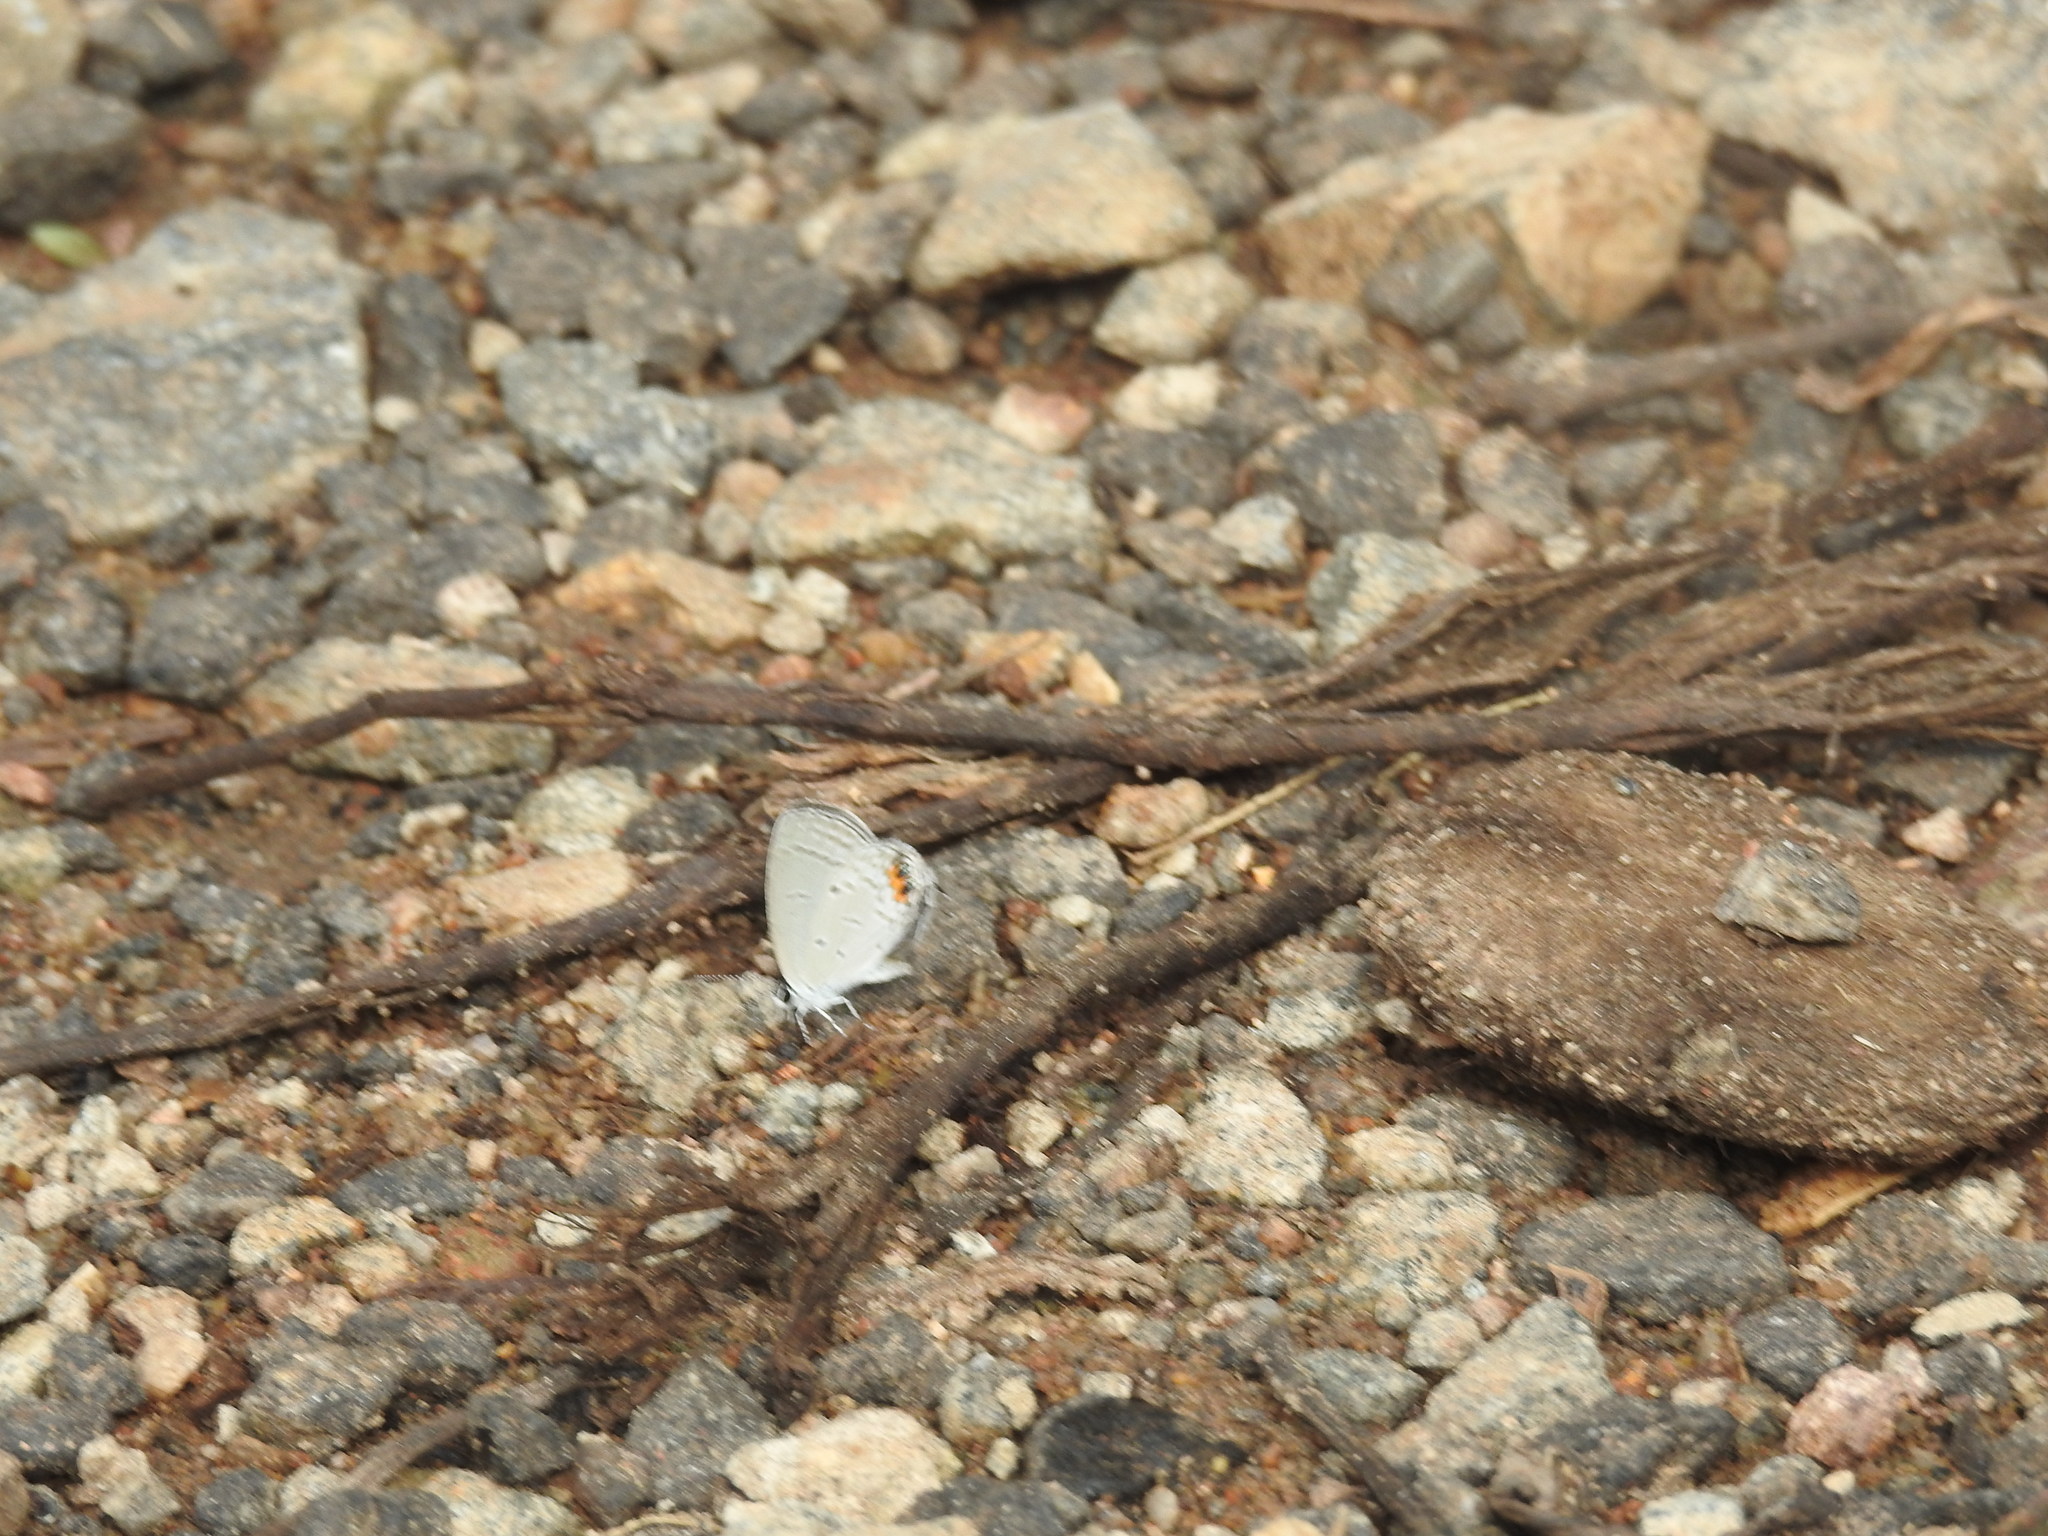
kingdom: Animalia
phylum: Arthropoda
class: Insecta
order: Lepidoptera
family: Lycaenidae
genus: Everes
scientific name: Everes lacturnus
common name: Orange-tipped pea-blue
